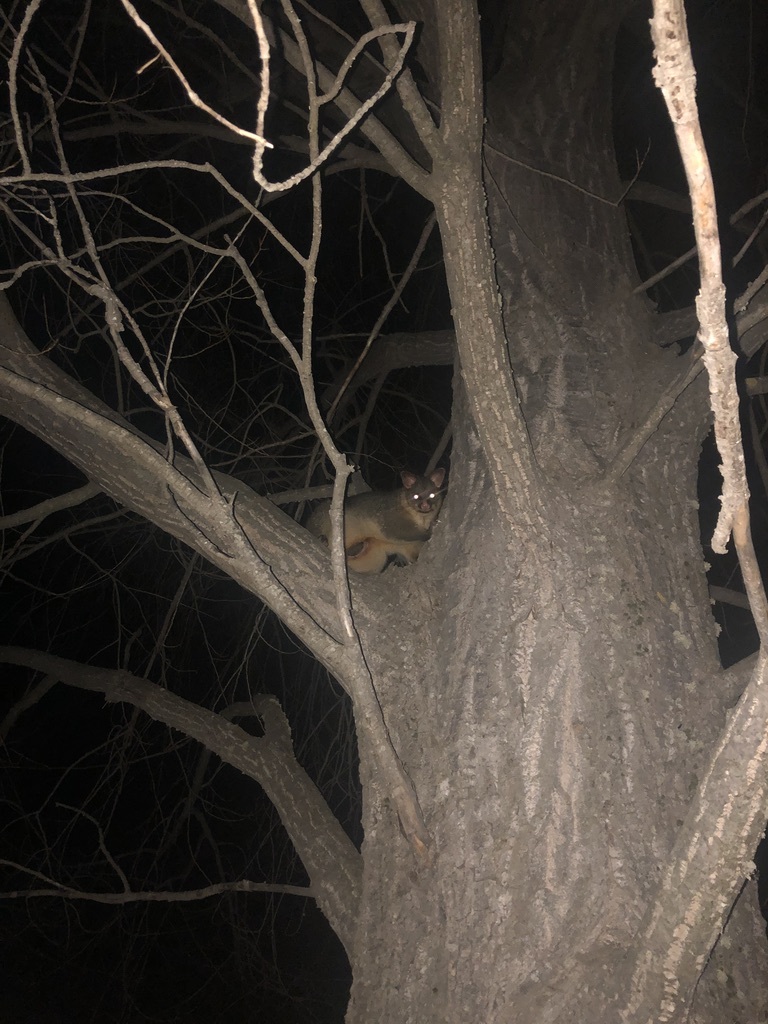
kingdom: Animalia
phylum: Chordata
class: Mammalia
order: Diprotodontia
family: Phalangeridae
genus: Trichosurus
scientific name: Trichosurus vulpecula
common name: Common brushtail
